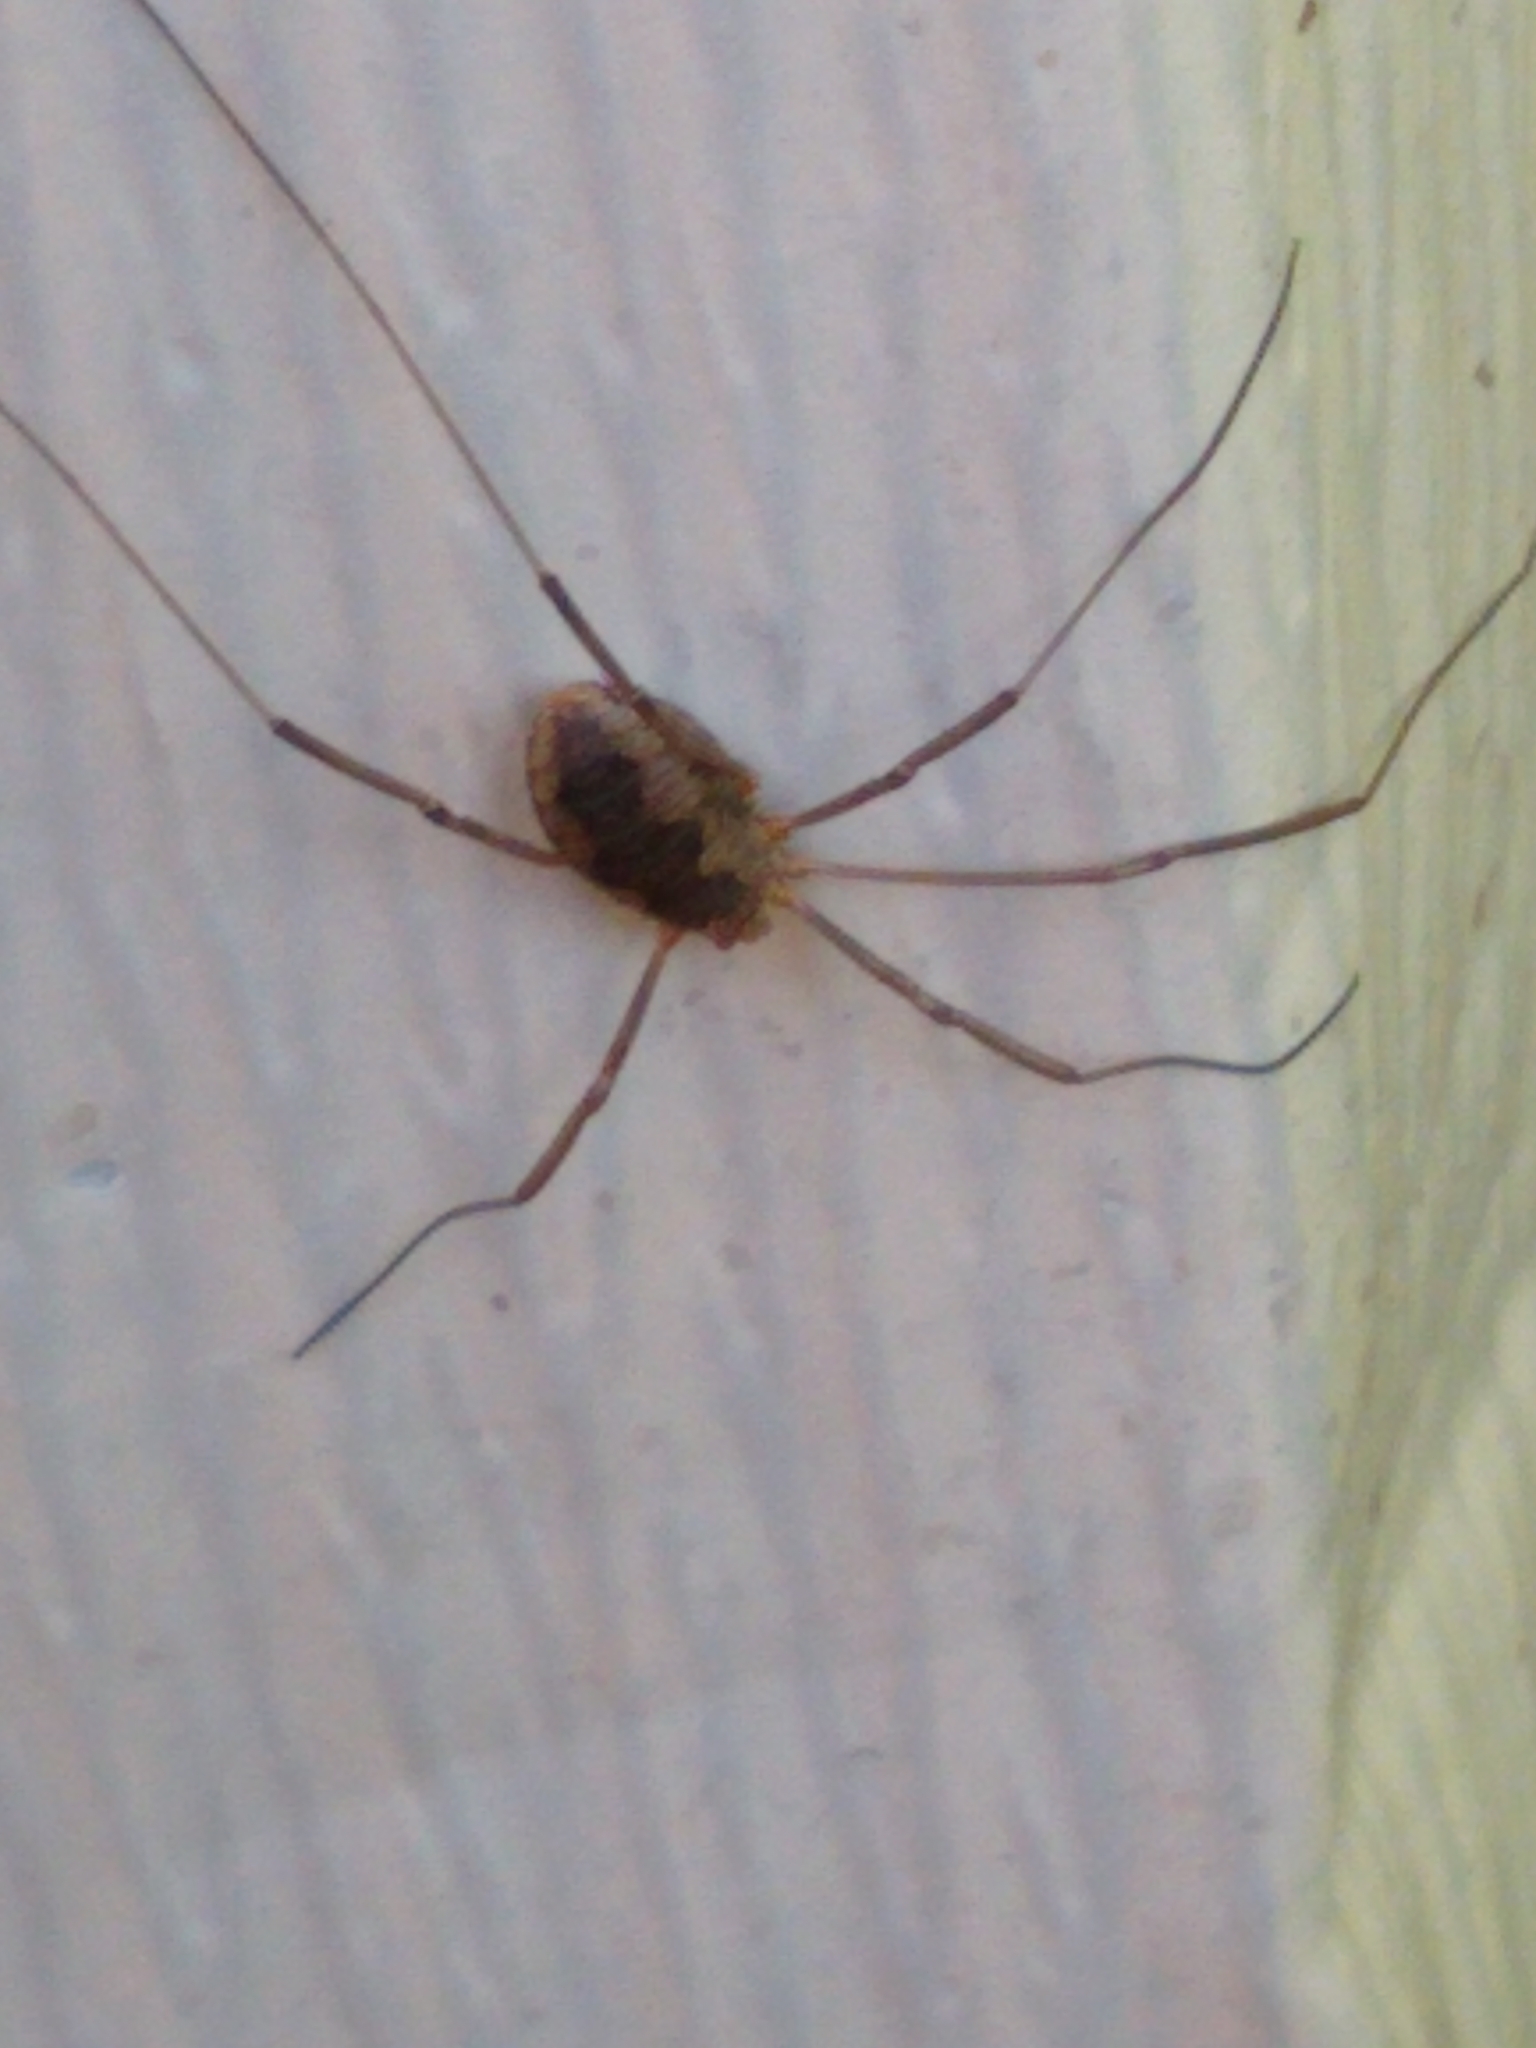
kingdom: Animalia
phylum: Arthropoda
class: Arachnida
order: Opiliones
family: Phalangiidae
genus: Phalangium
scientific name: Phalangium opilio
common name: Daddy longleg
